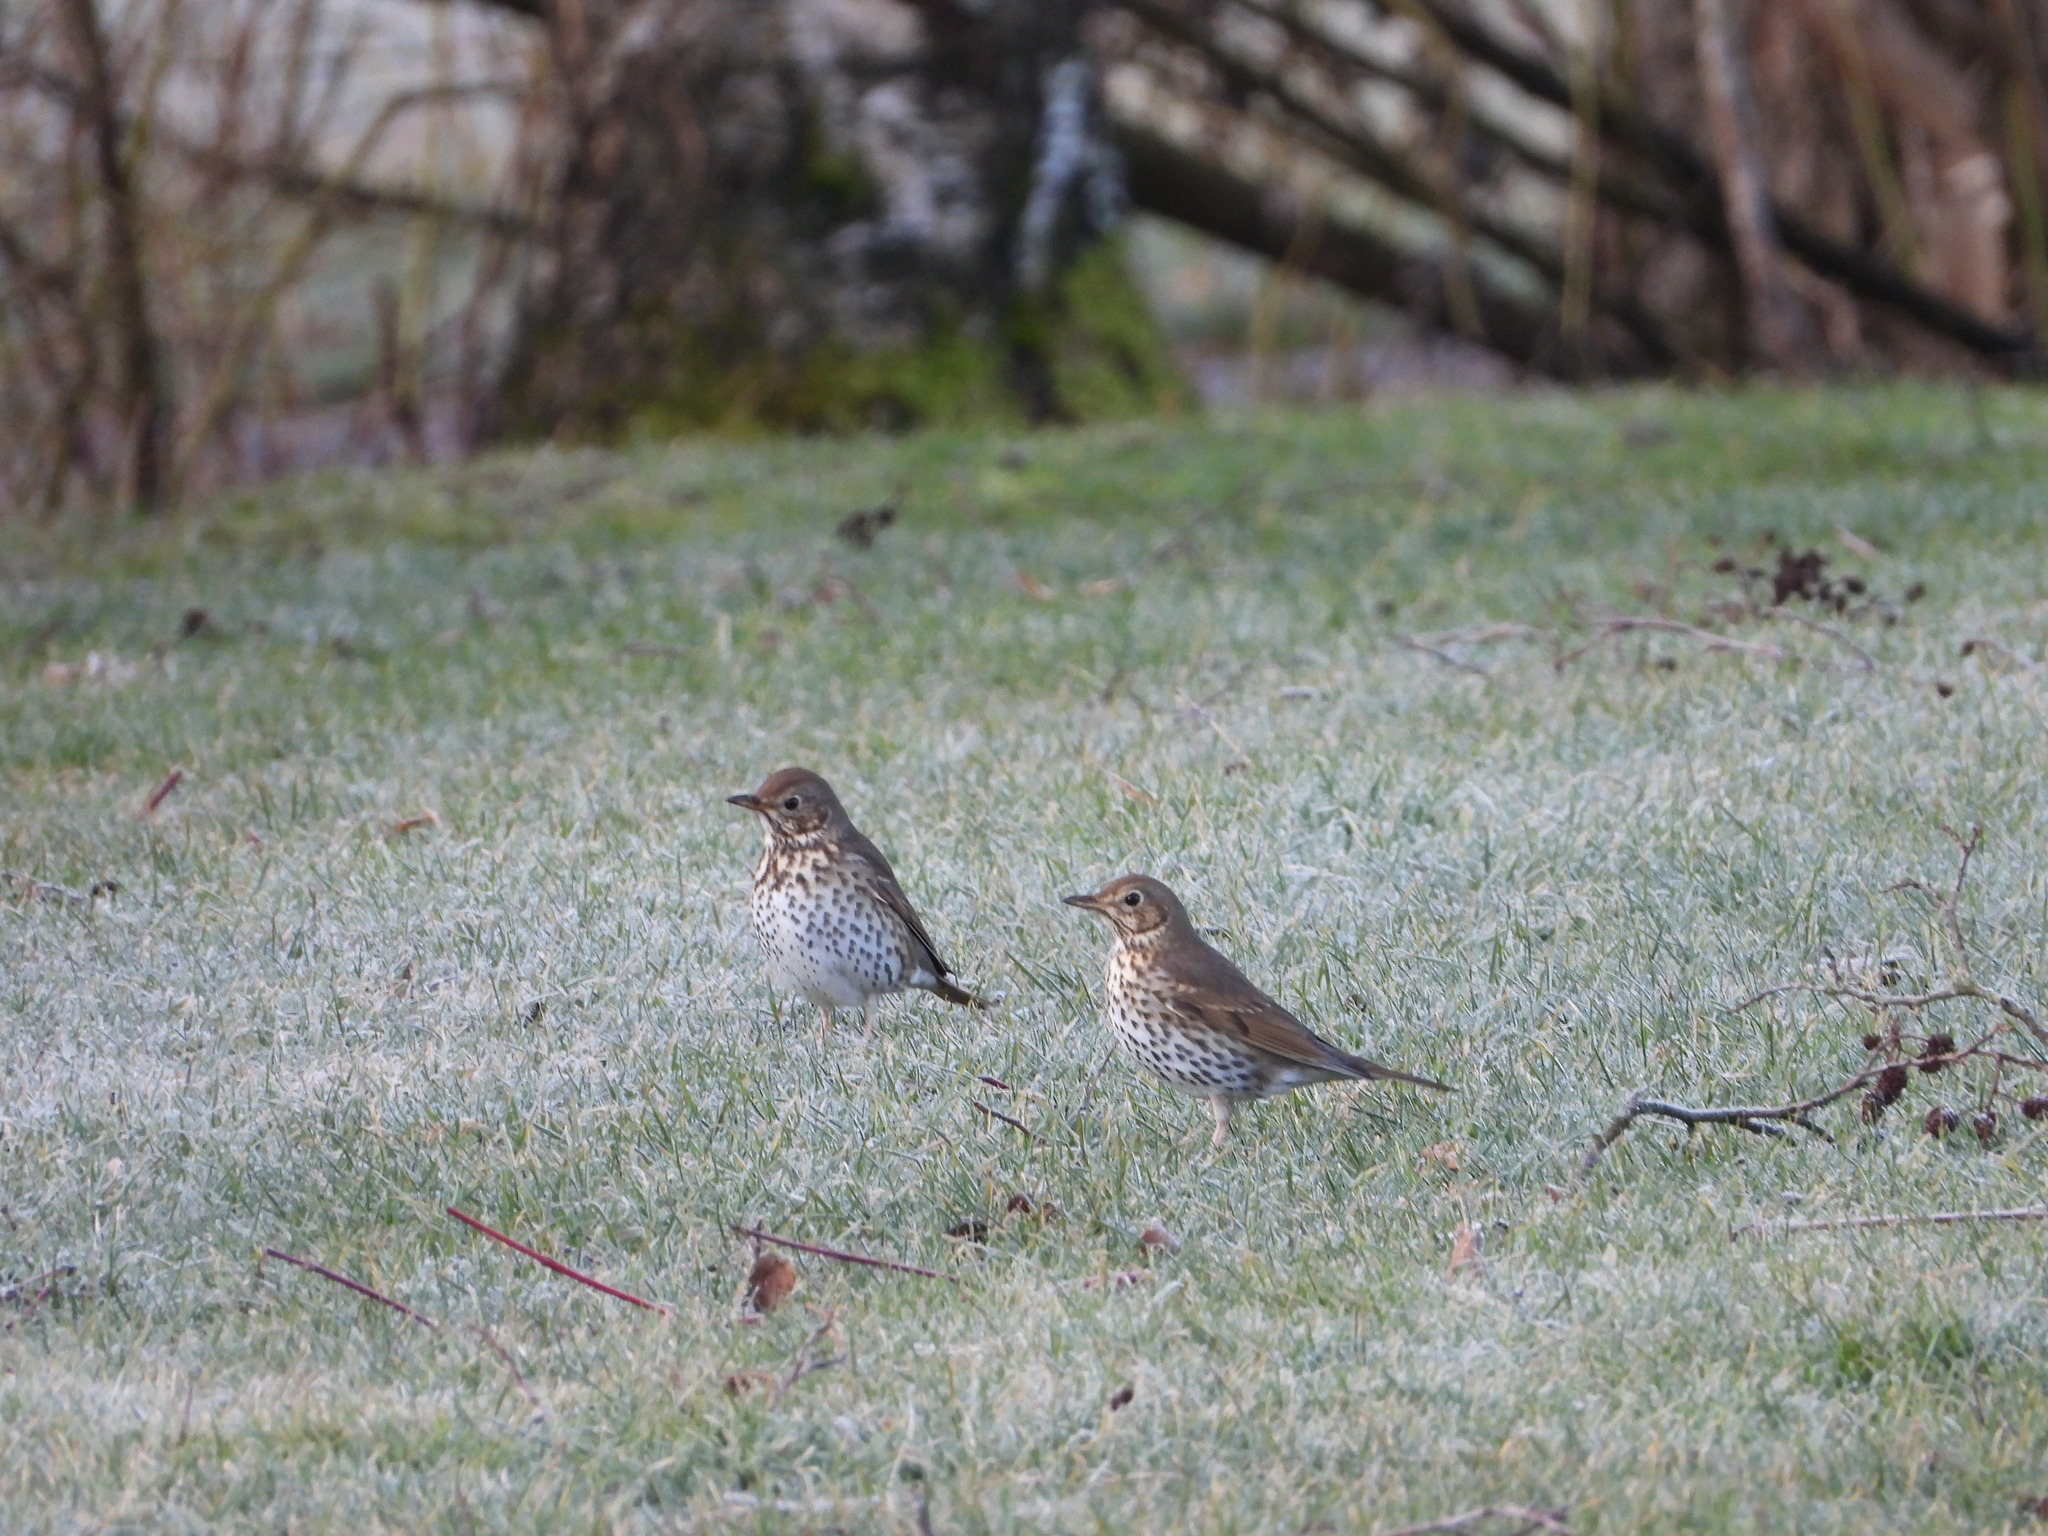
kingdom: Animalia
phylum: Chordata
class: Aves
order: Passeriformes
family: Turdidae
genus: Turdus
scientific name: Turdus philomelos
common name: Song thrush
